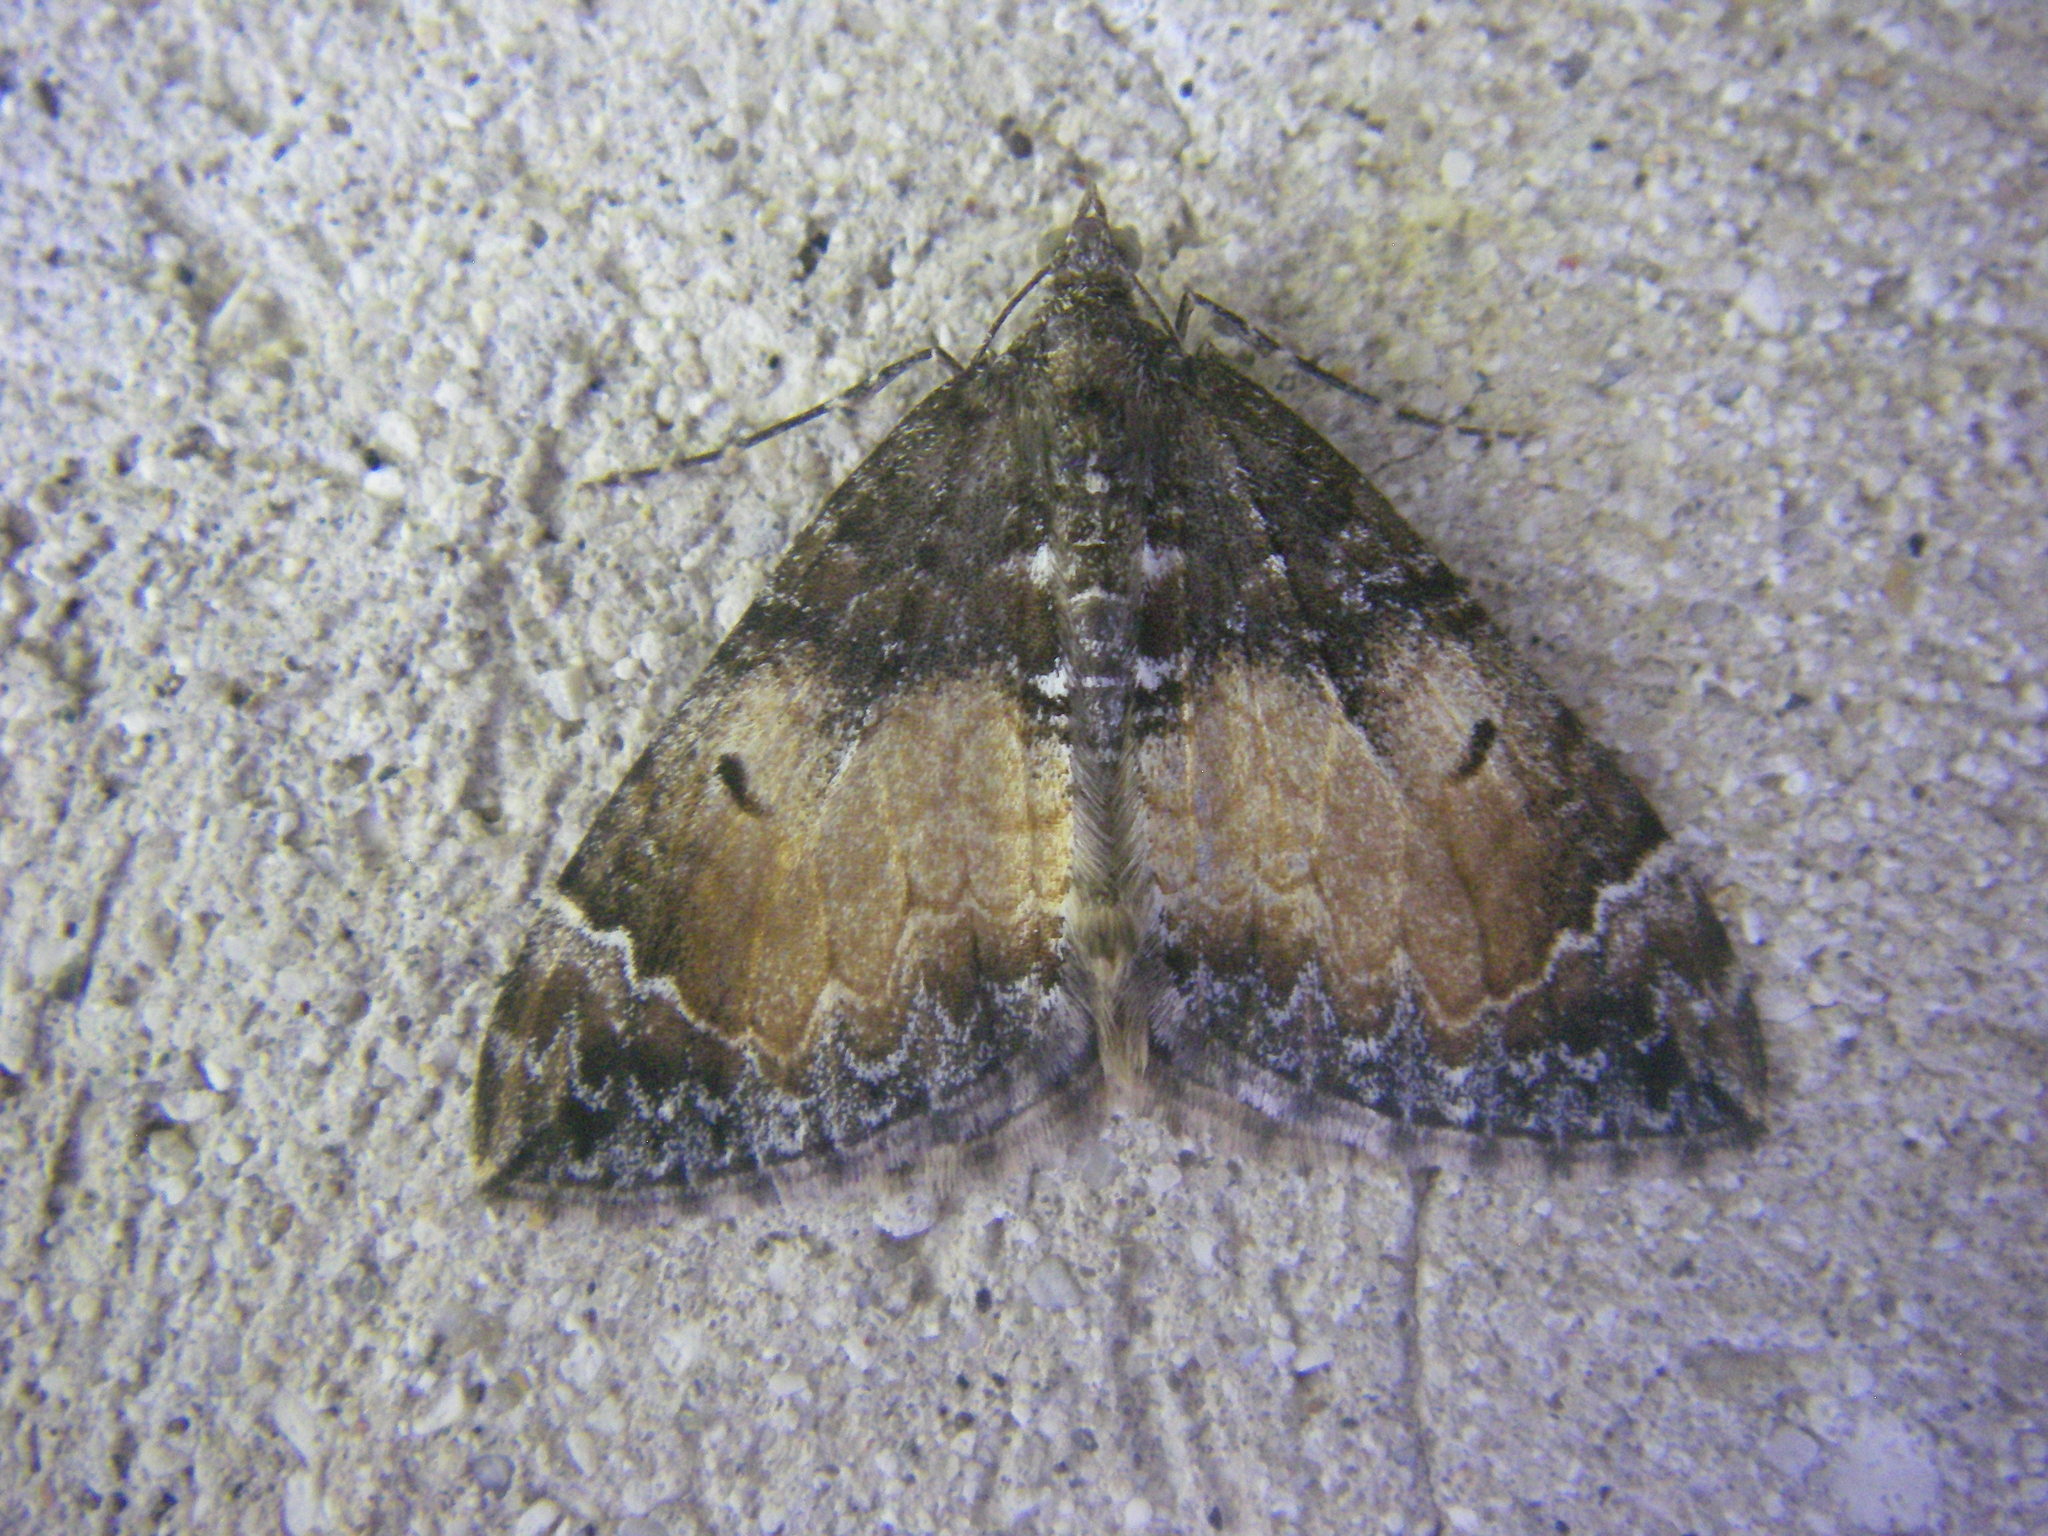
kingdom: Animalia
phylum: Arthropoda
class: Insecta
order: Lepidoptera
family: Geometridae
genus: Dysstroma
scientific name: Dysstroma truncata
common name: Common marbled carpet
